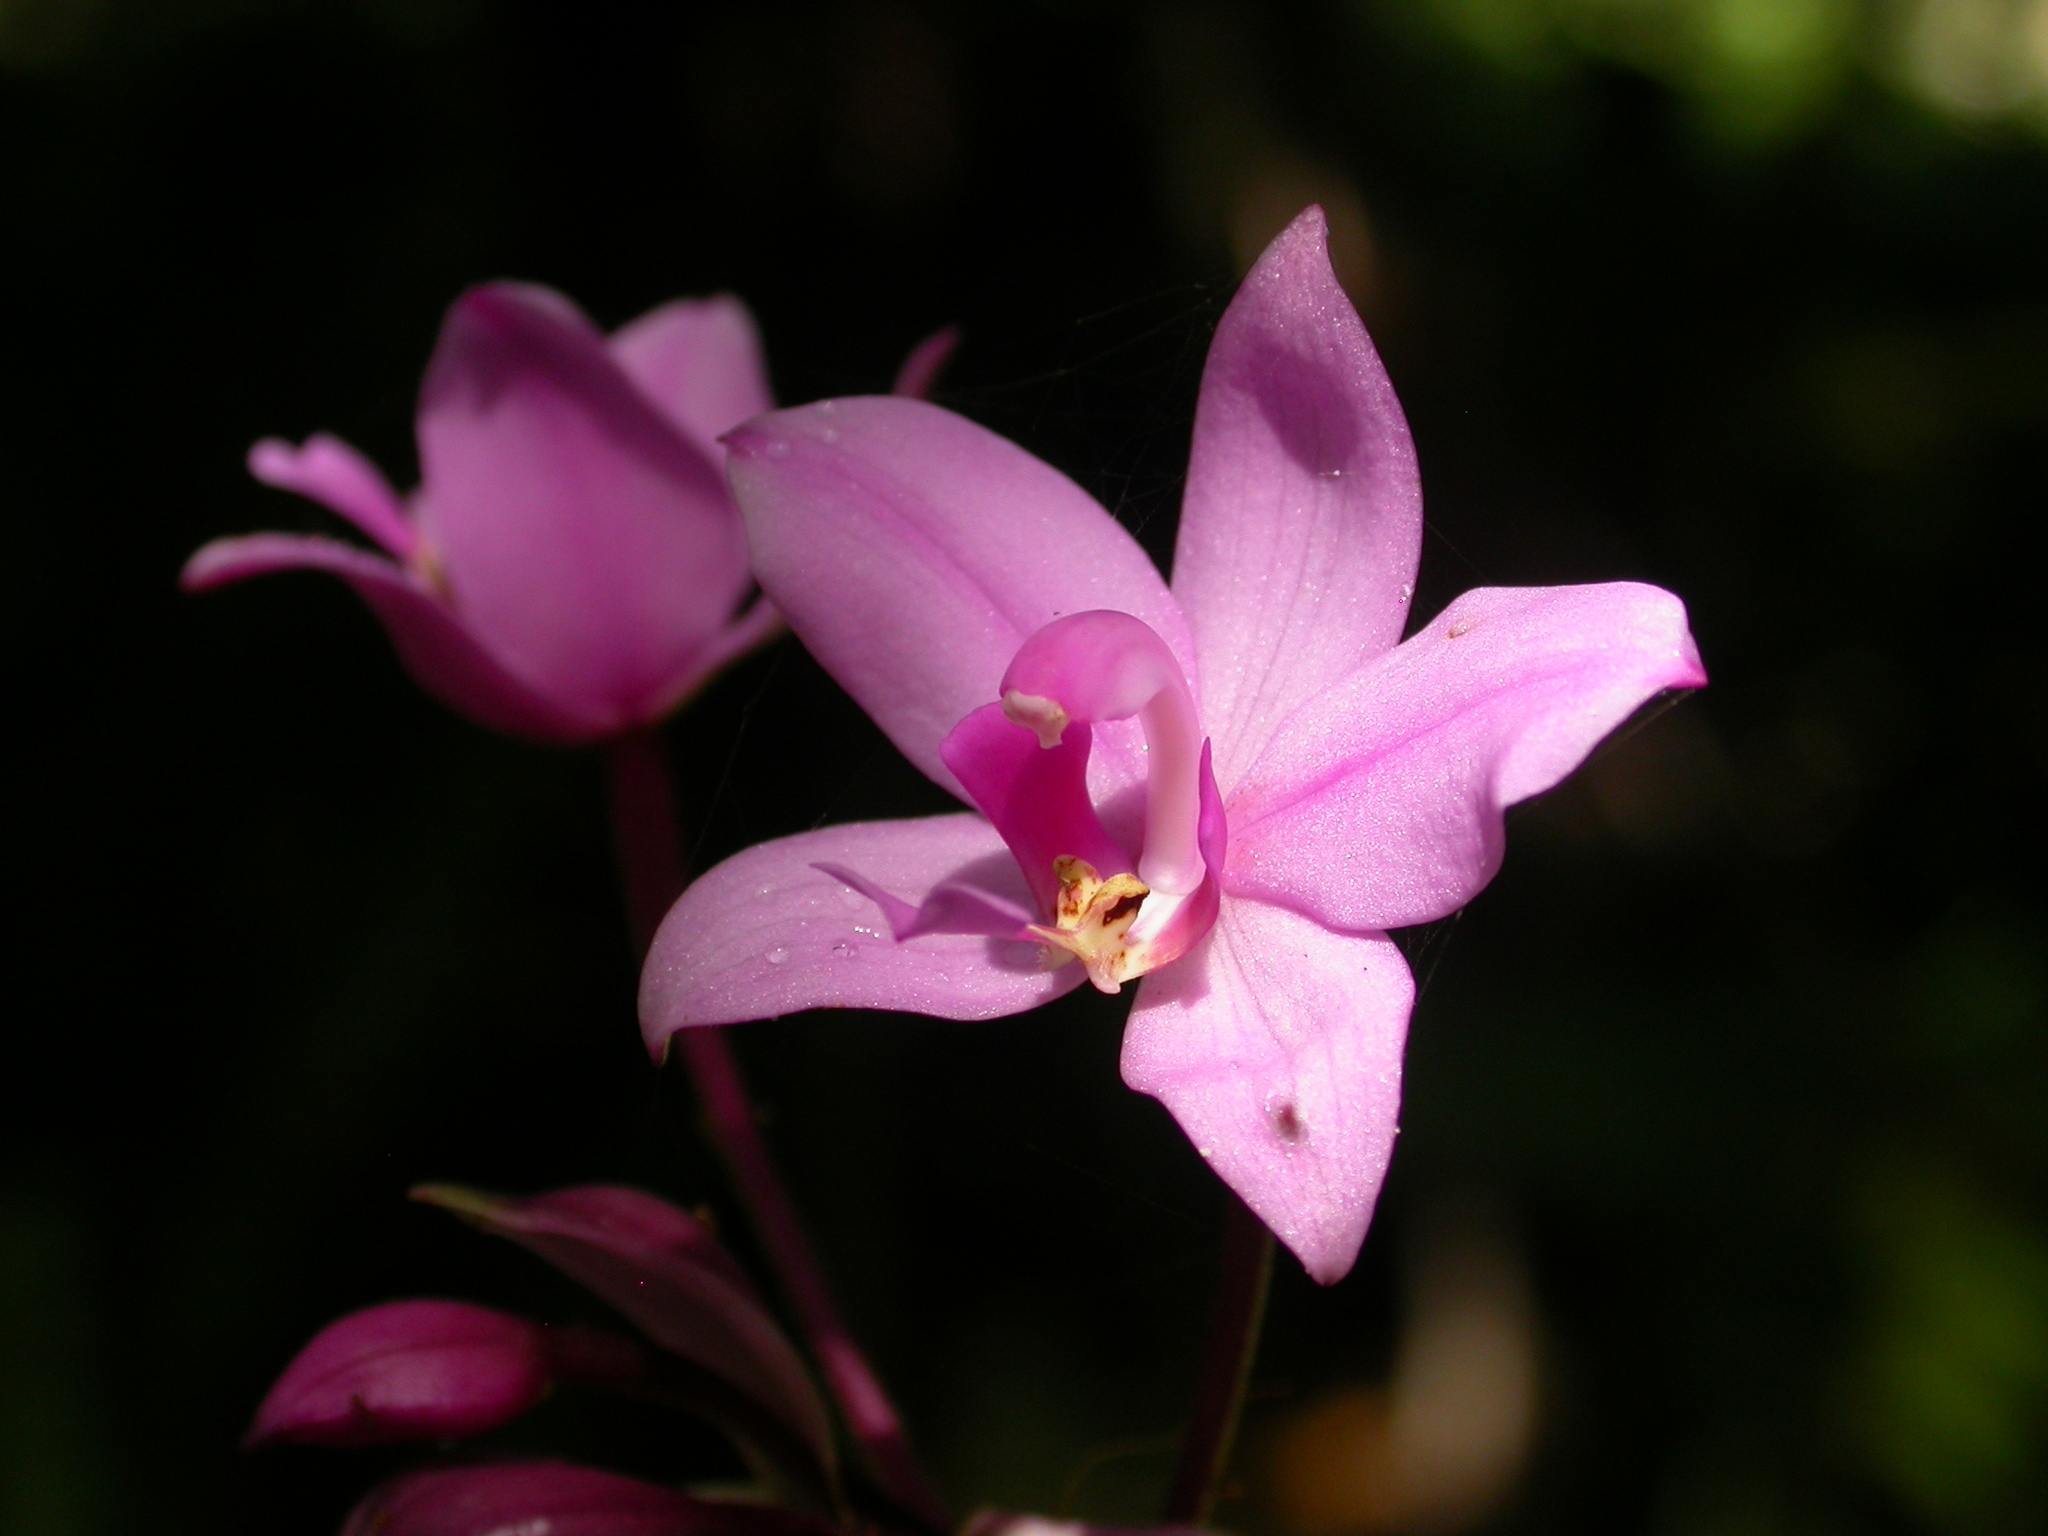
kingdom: Plantae
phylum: Tracheophyta
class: Liliopsida
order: Asparagales
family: Orchidaceae
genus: Spathoglottis
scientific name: Spathoglottis plicata
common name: Philippine ground orchid
